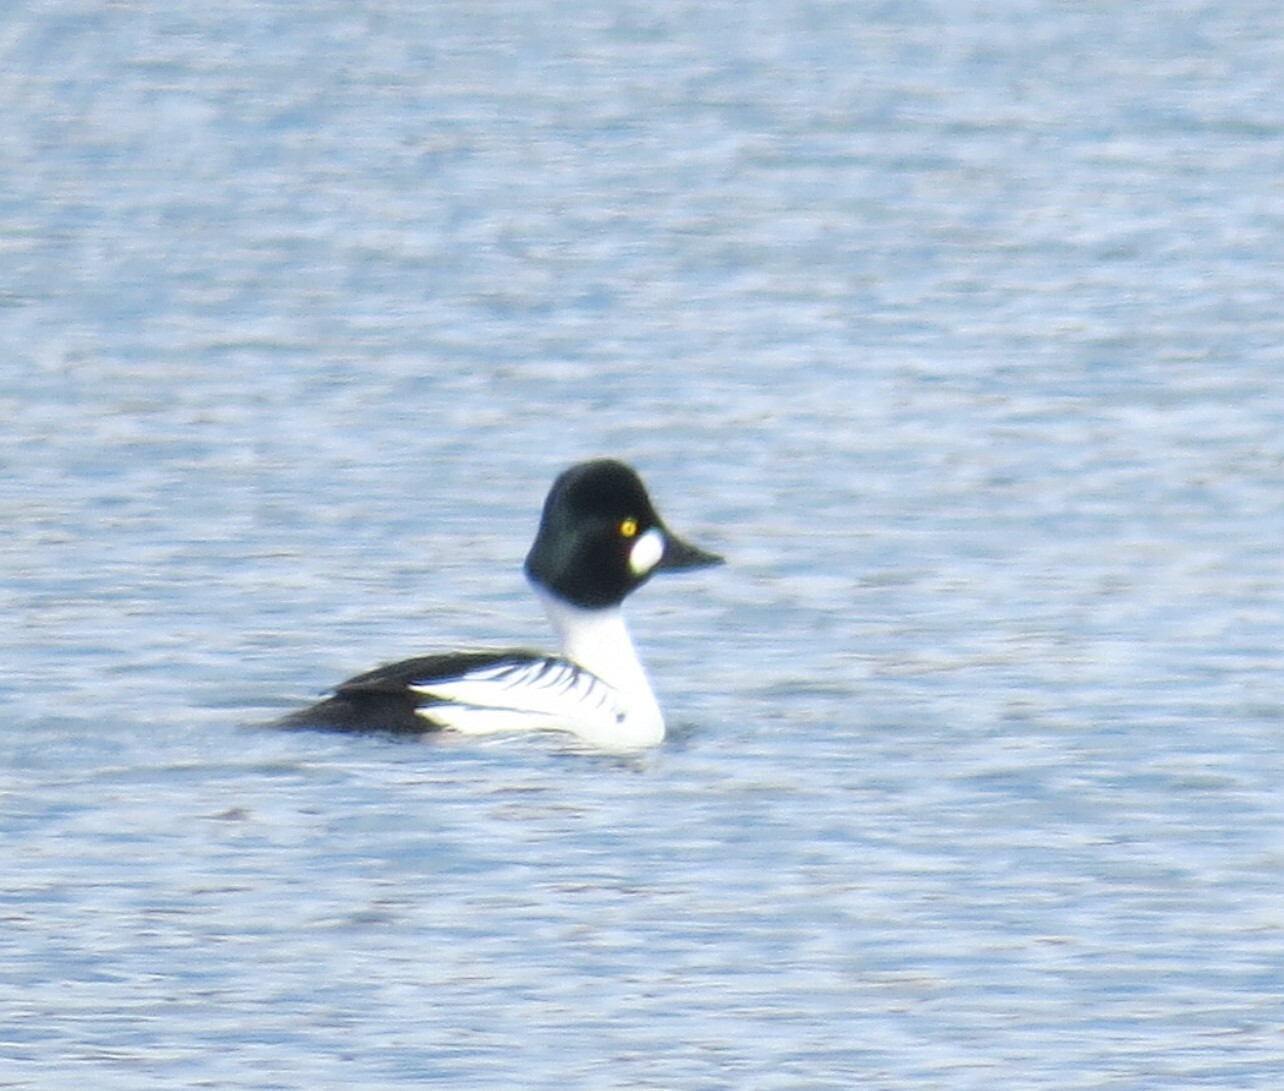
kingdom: Animalia
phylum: Chordata
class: Aves
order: Anseriformes
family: Anatidae
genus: Bucephala
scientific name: Bucephala clangula
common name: Common goldeneye
